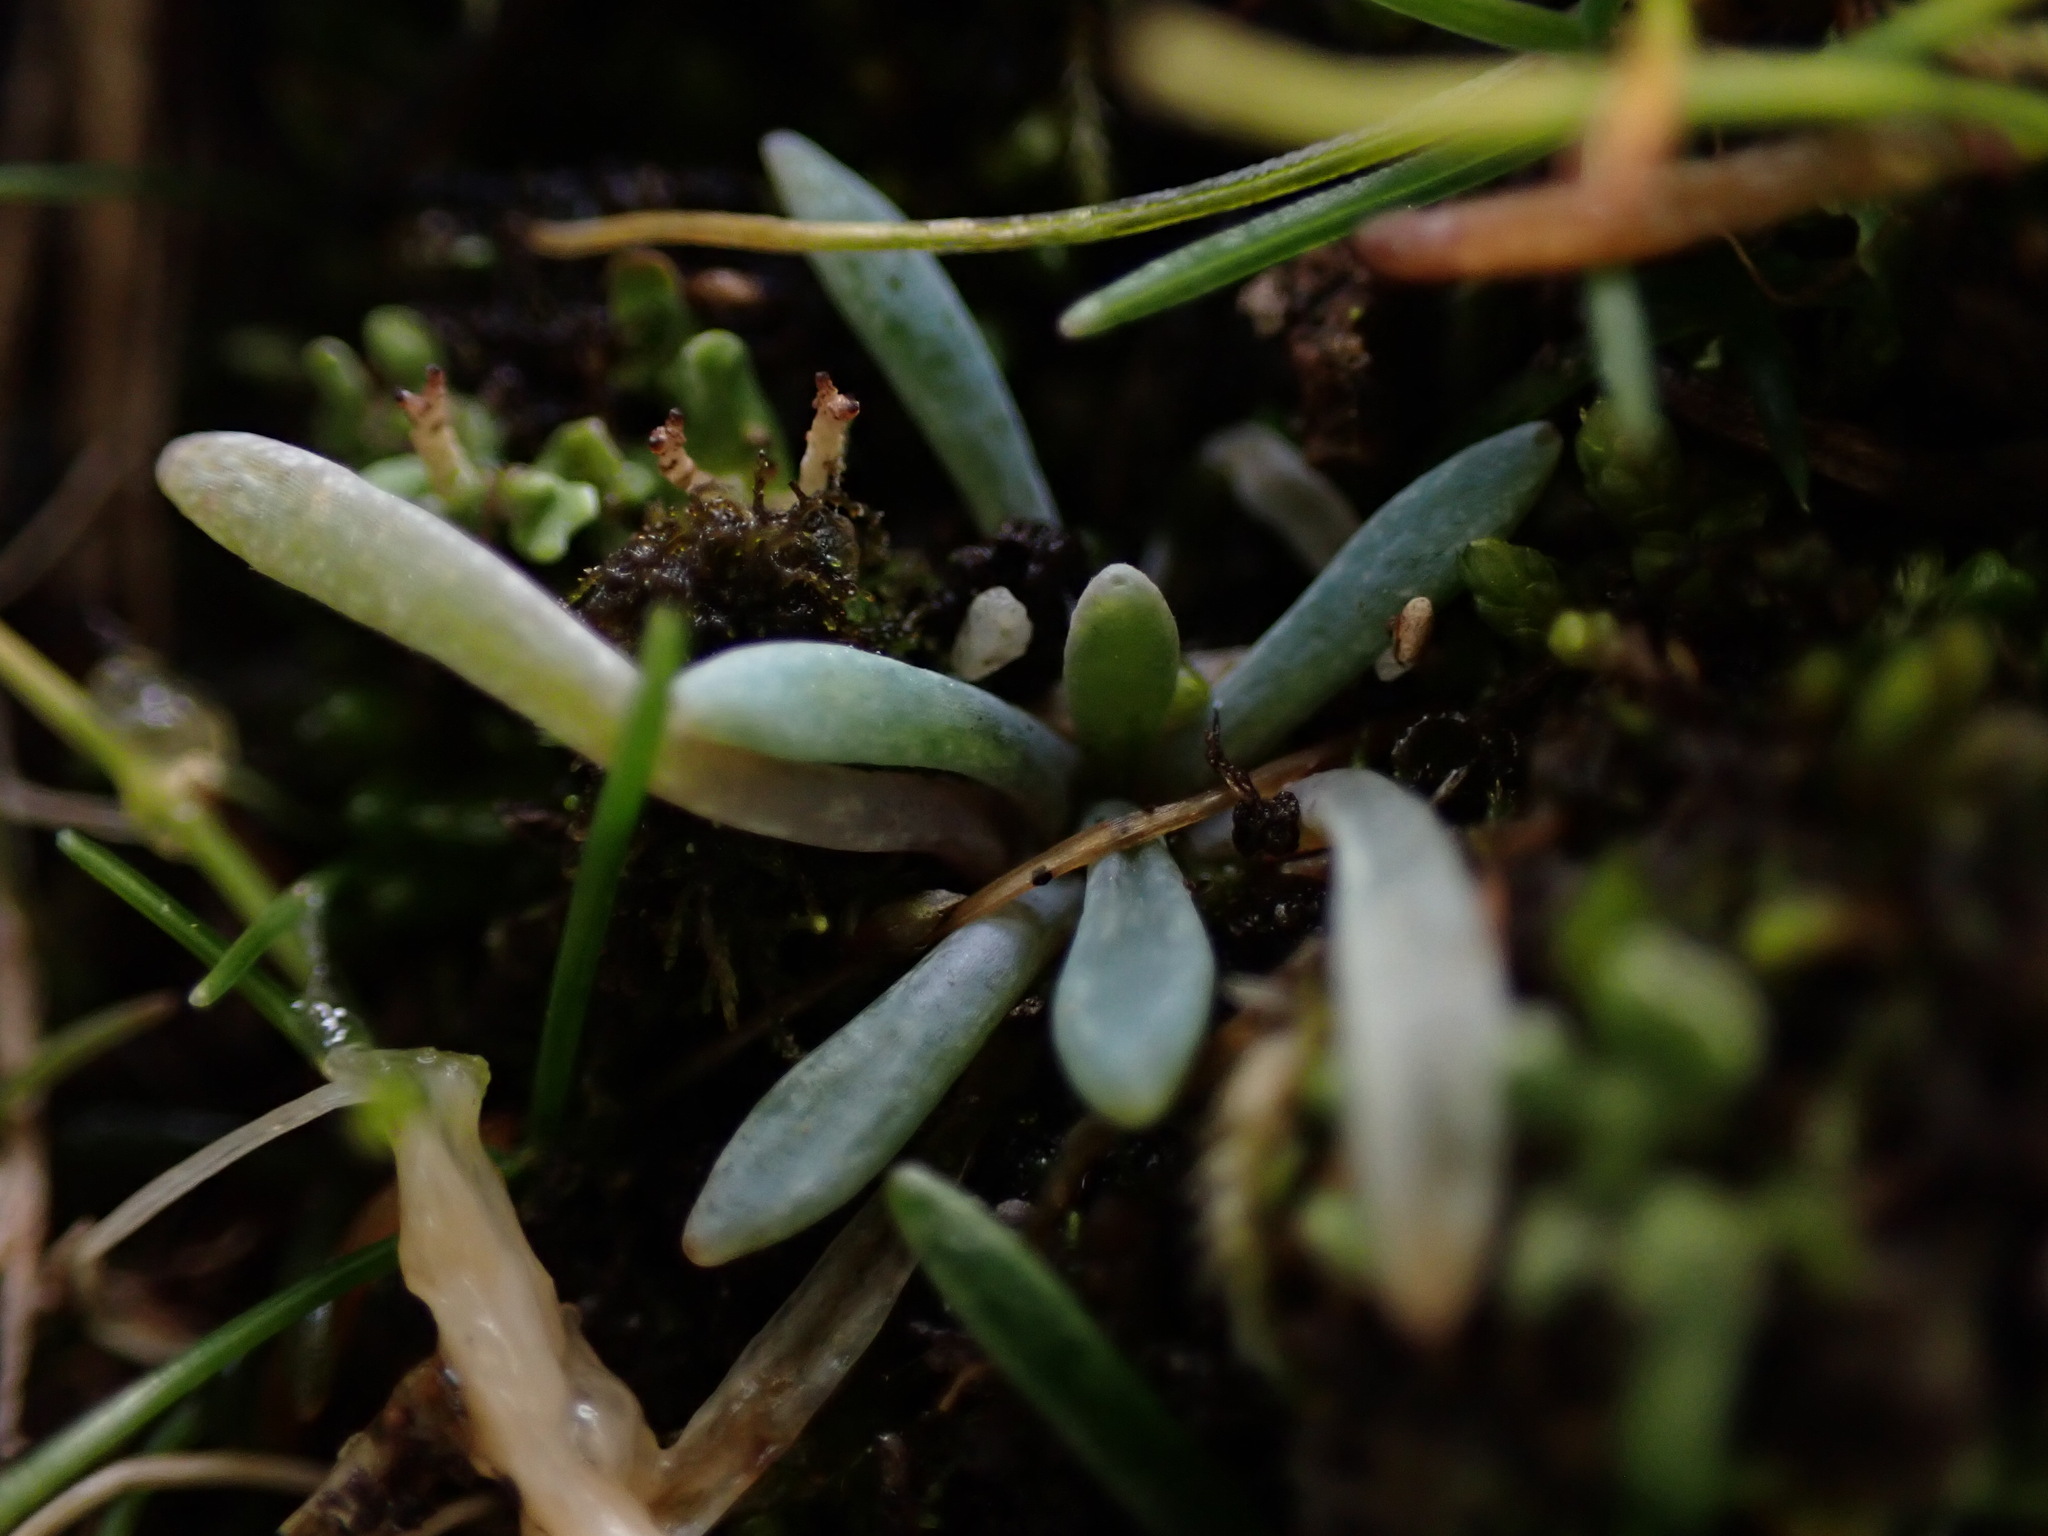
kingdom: Plantae
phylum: Tracheophyta
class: Magnoliopsida
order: Caryophyllales
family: Montiaceae
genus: Claytonia
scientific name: Claytonia exigua
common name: Pale spring beauty
